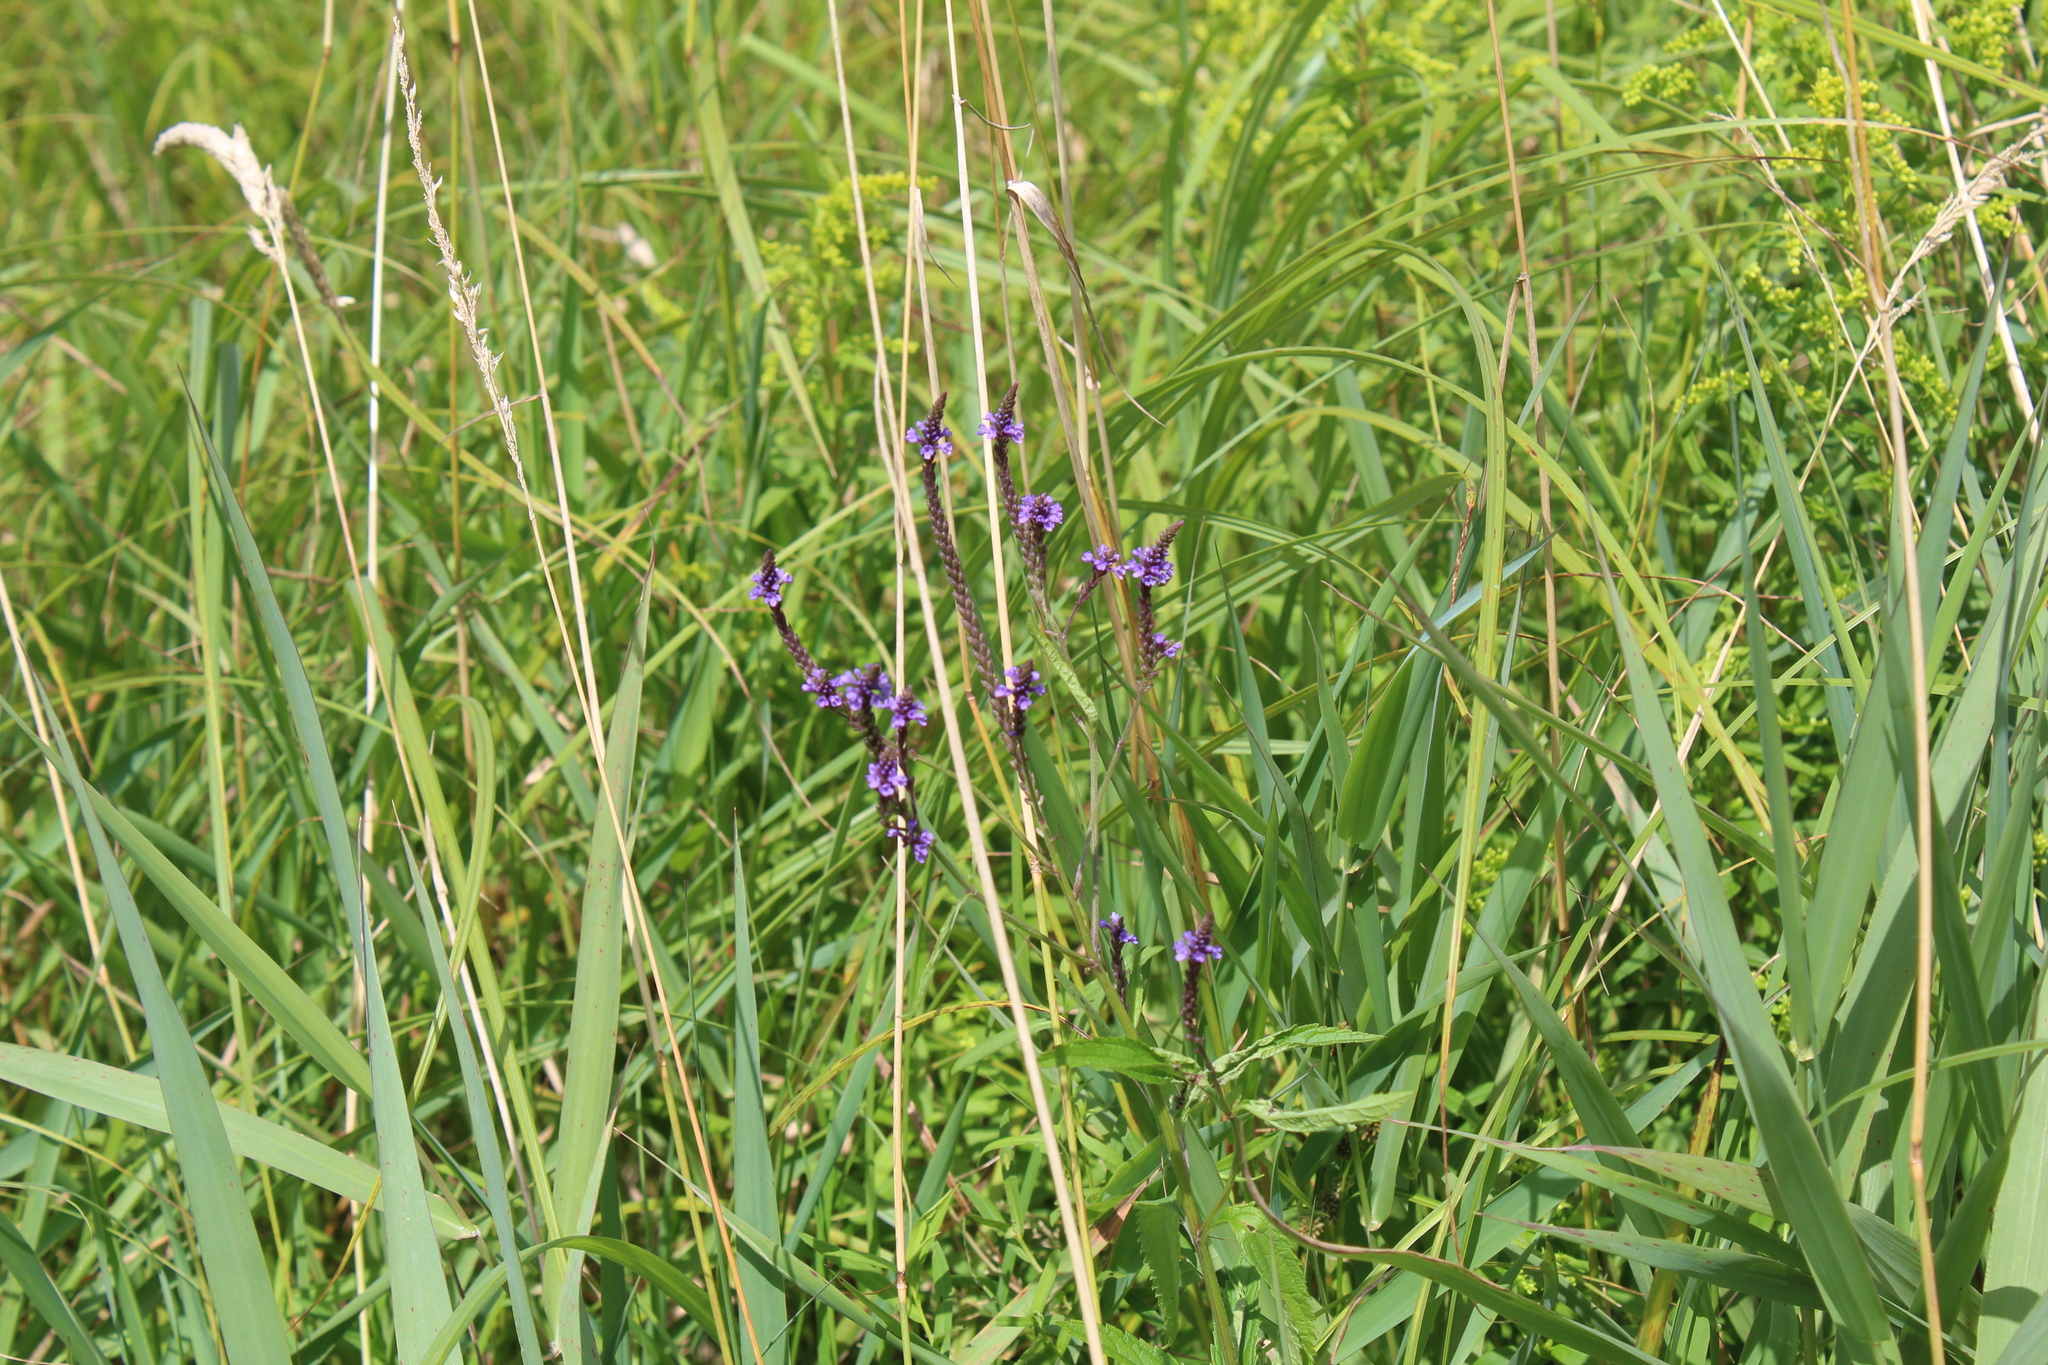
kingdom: Plantae
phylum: Tracheophyta
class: Magnoliopsida
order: Lamiales
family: Verbenaceae
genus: Verbena
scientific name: Verbena hastata
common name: American blue vervain
